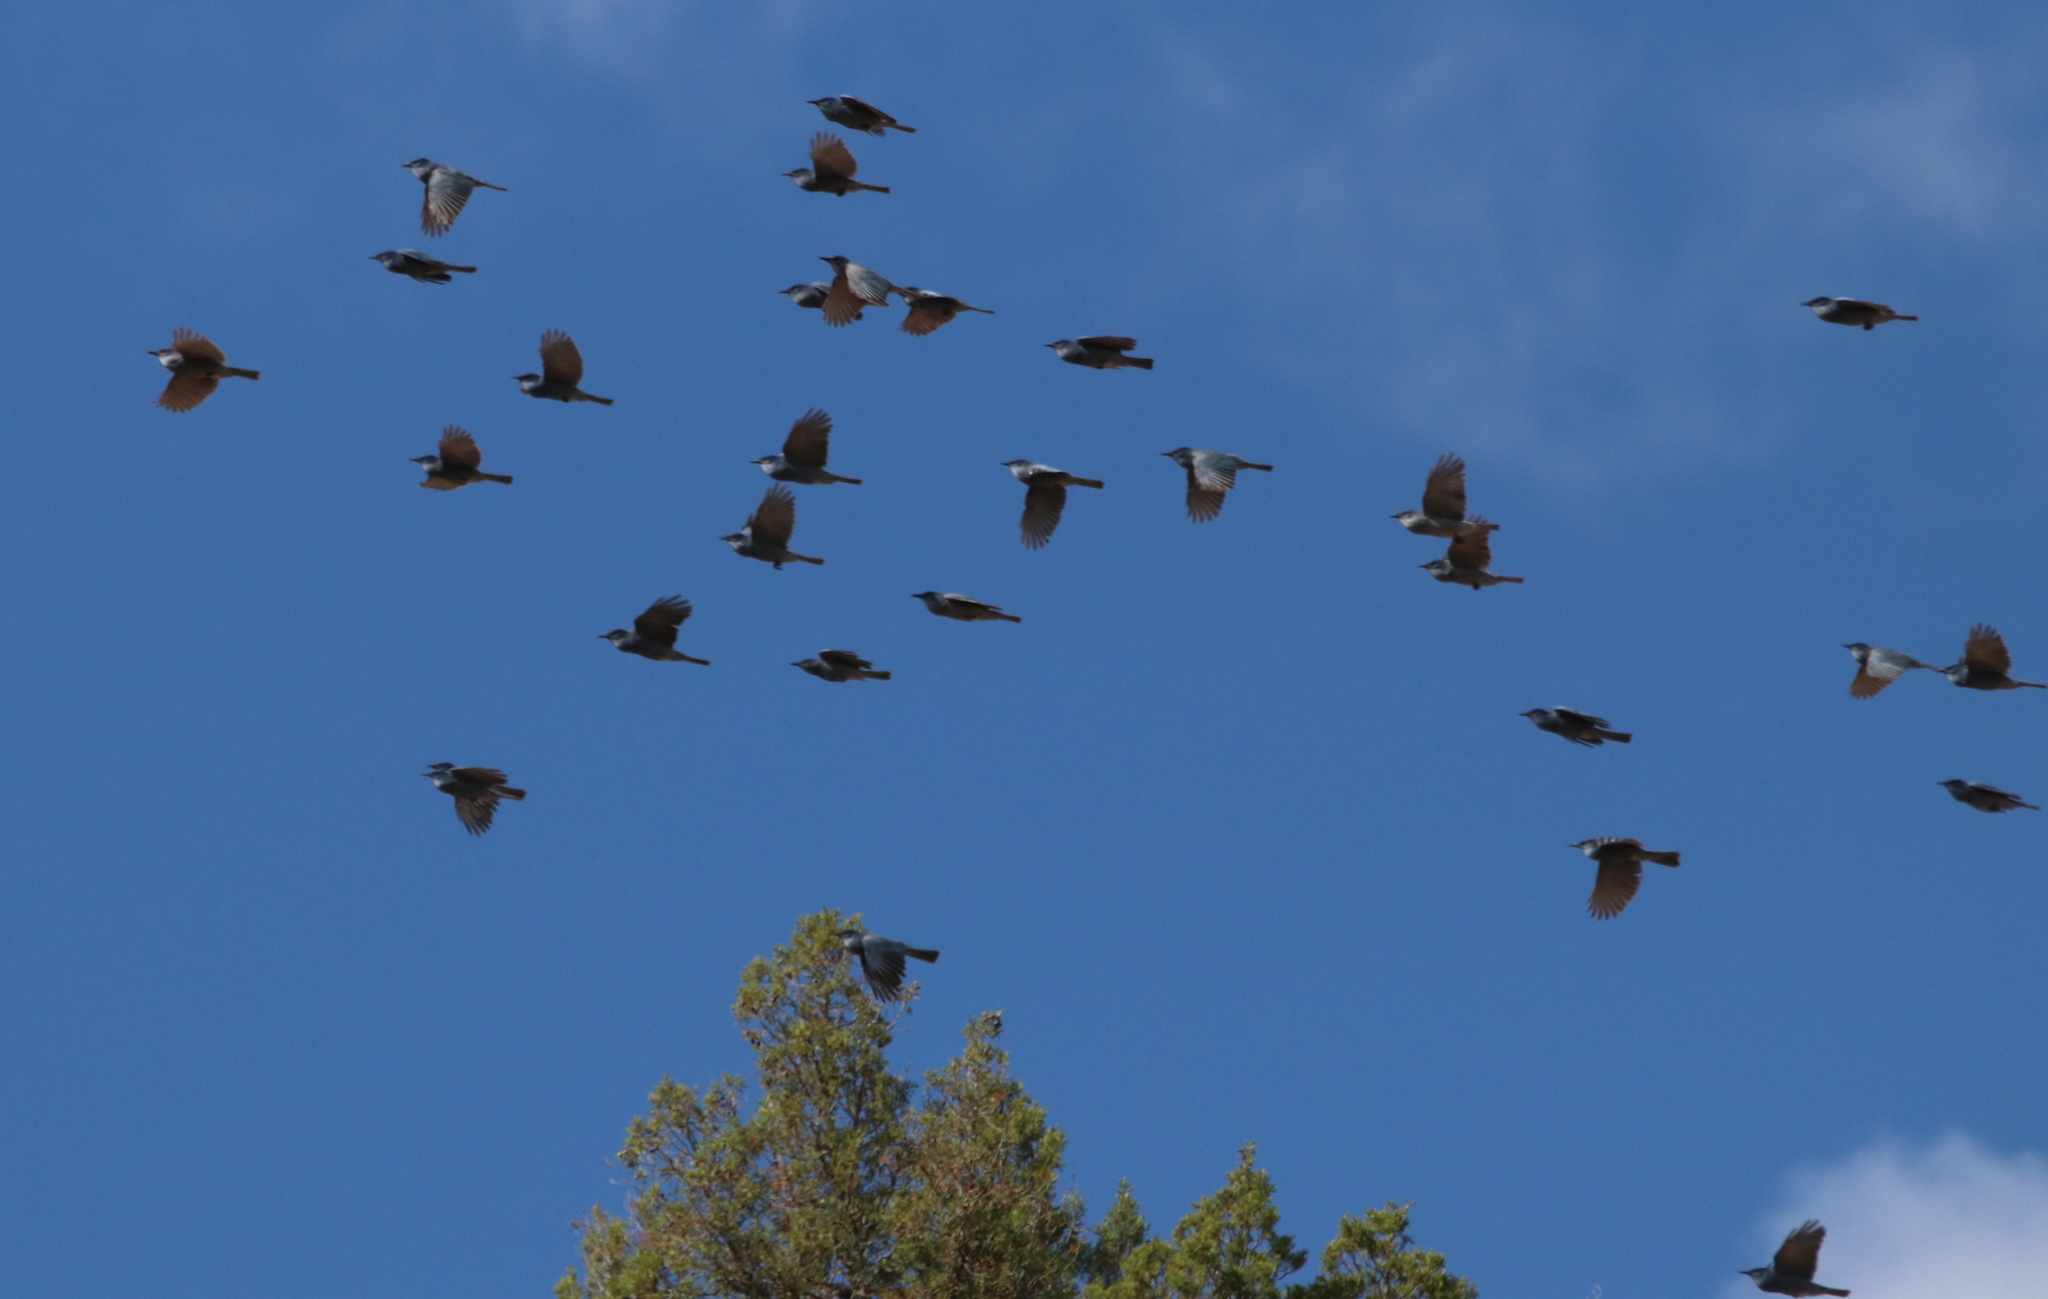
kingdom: Animalia
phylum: Chordata
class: Aves
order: Passeriformes
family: Corvidae
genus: Gymnorhinus
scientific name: Gymnorhinus cyanocephalus
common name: Pinyon jay
